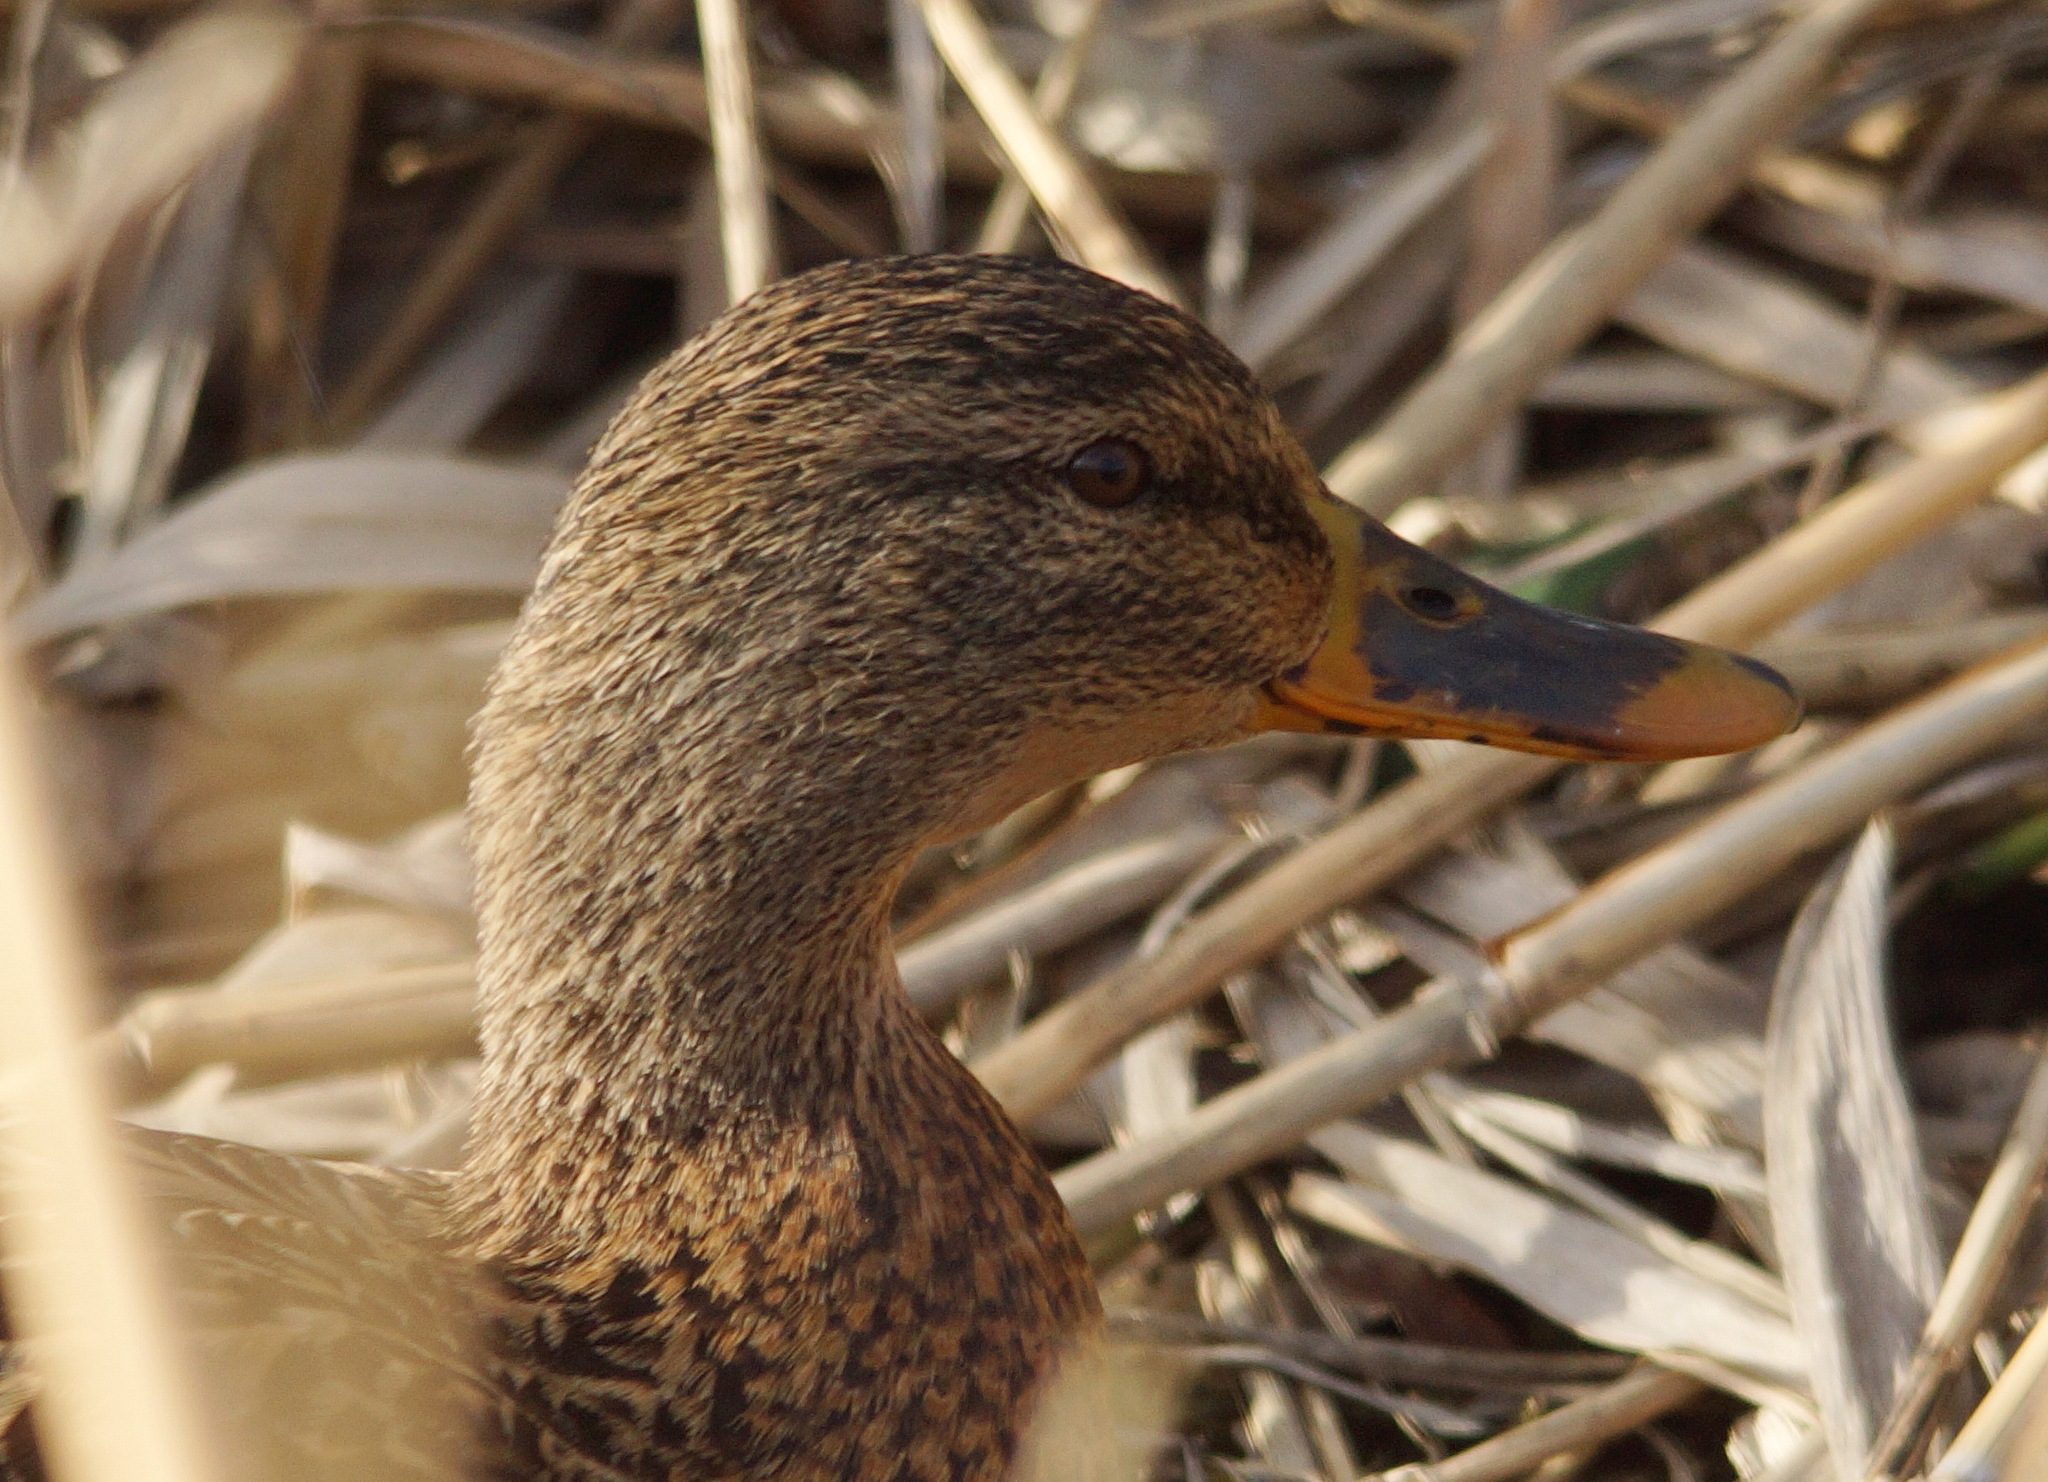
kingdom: Animalia
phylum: Chordata
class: Aves
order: Anseriformes
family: Anatidae
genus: Anas
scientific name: Anas platyrhynchos
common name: Mallard
